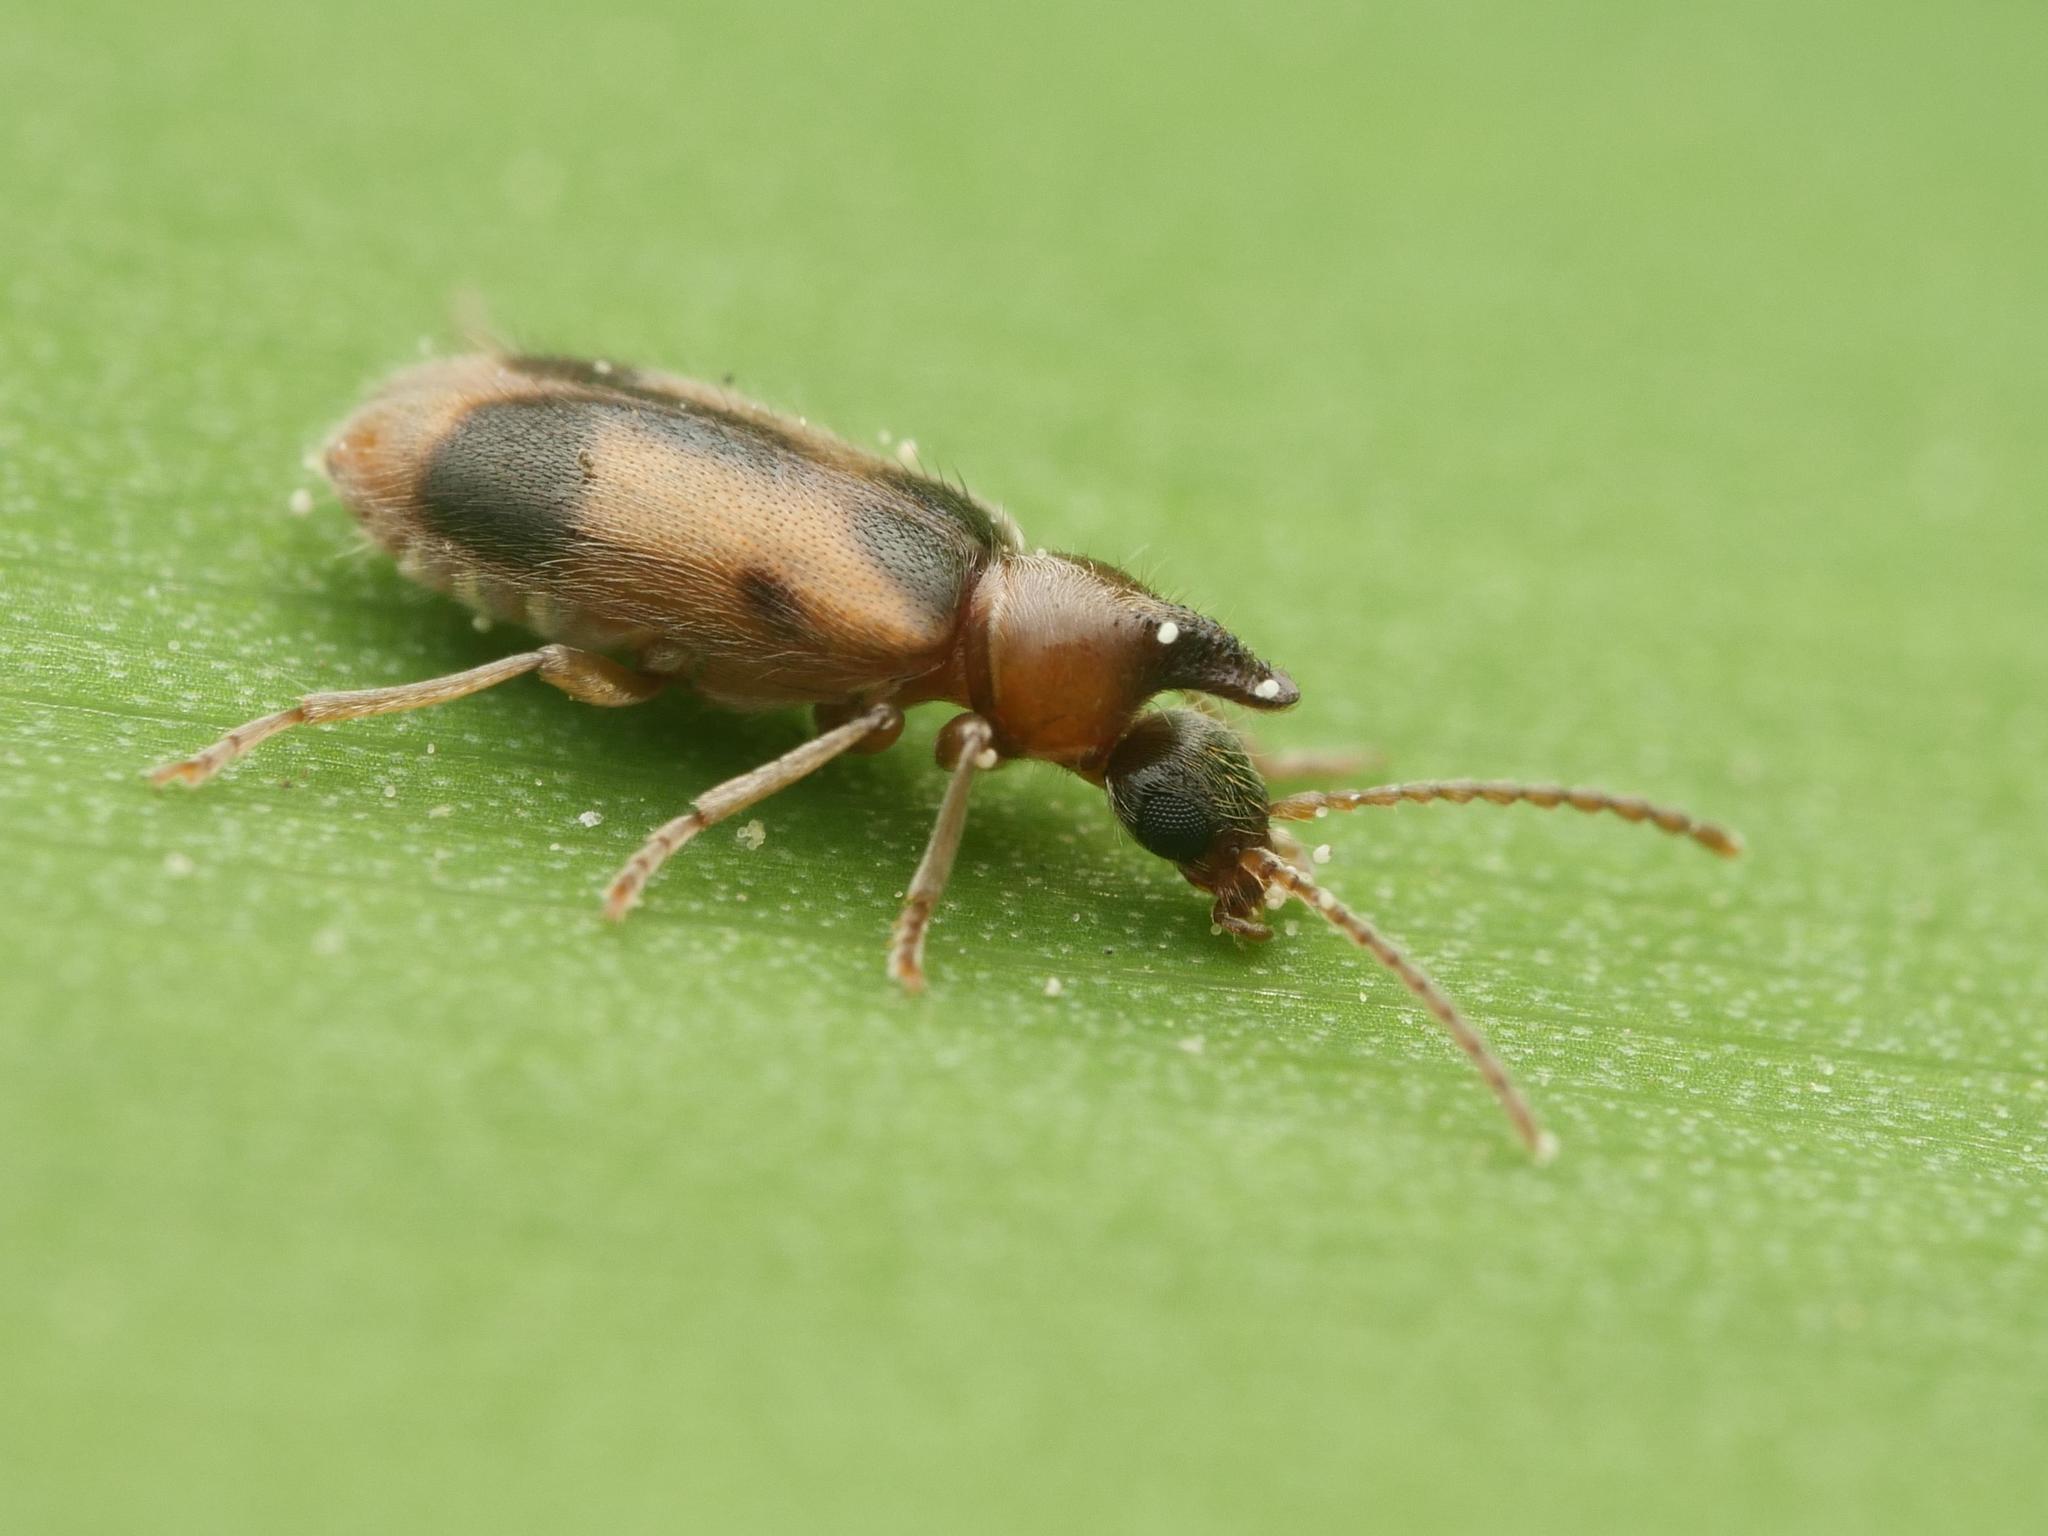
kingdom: Animalia
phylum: Arthropoda
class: Insecta
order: Coleoptera
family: Anthicidae
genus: Notoxus
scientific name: Notoxus monoceros
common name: Monoceros beetle
